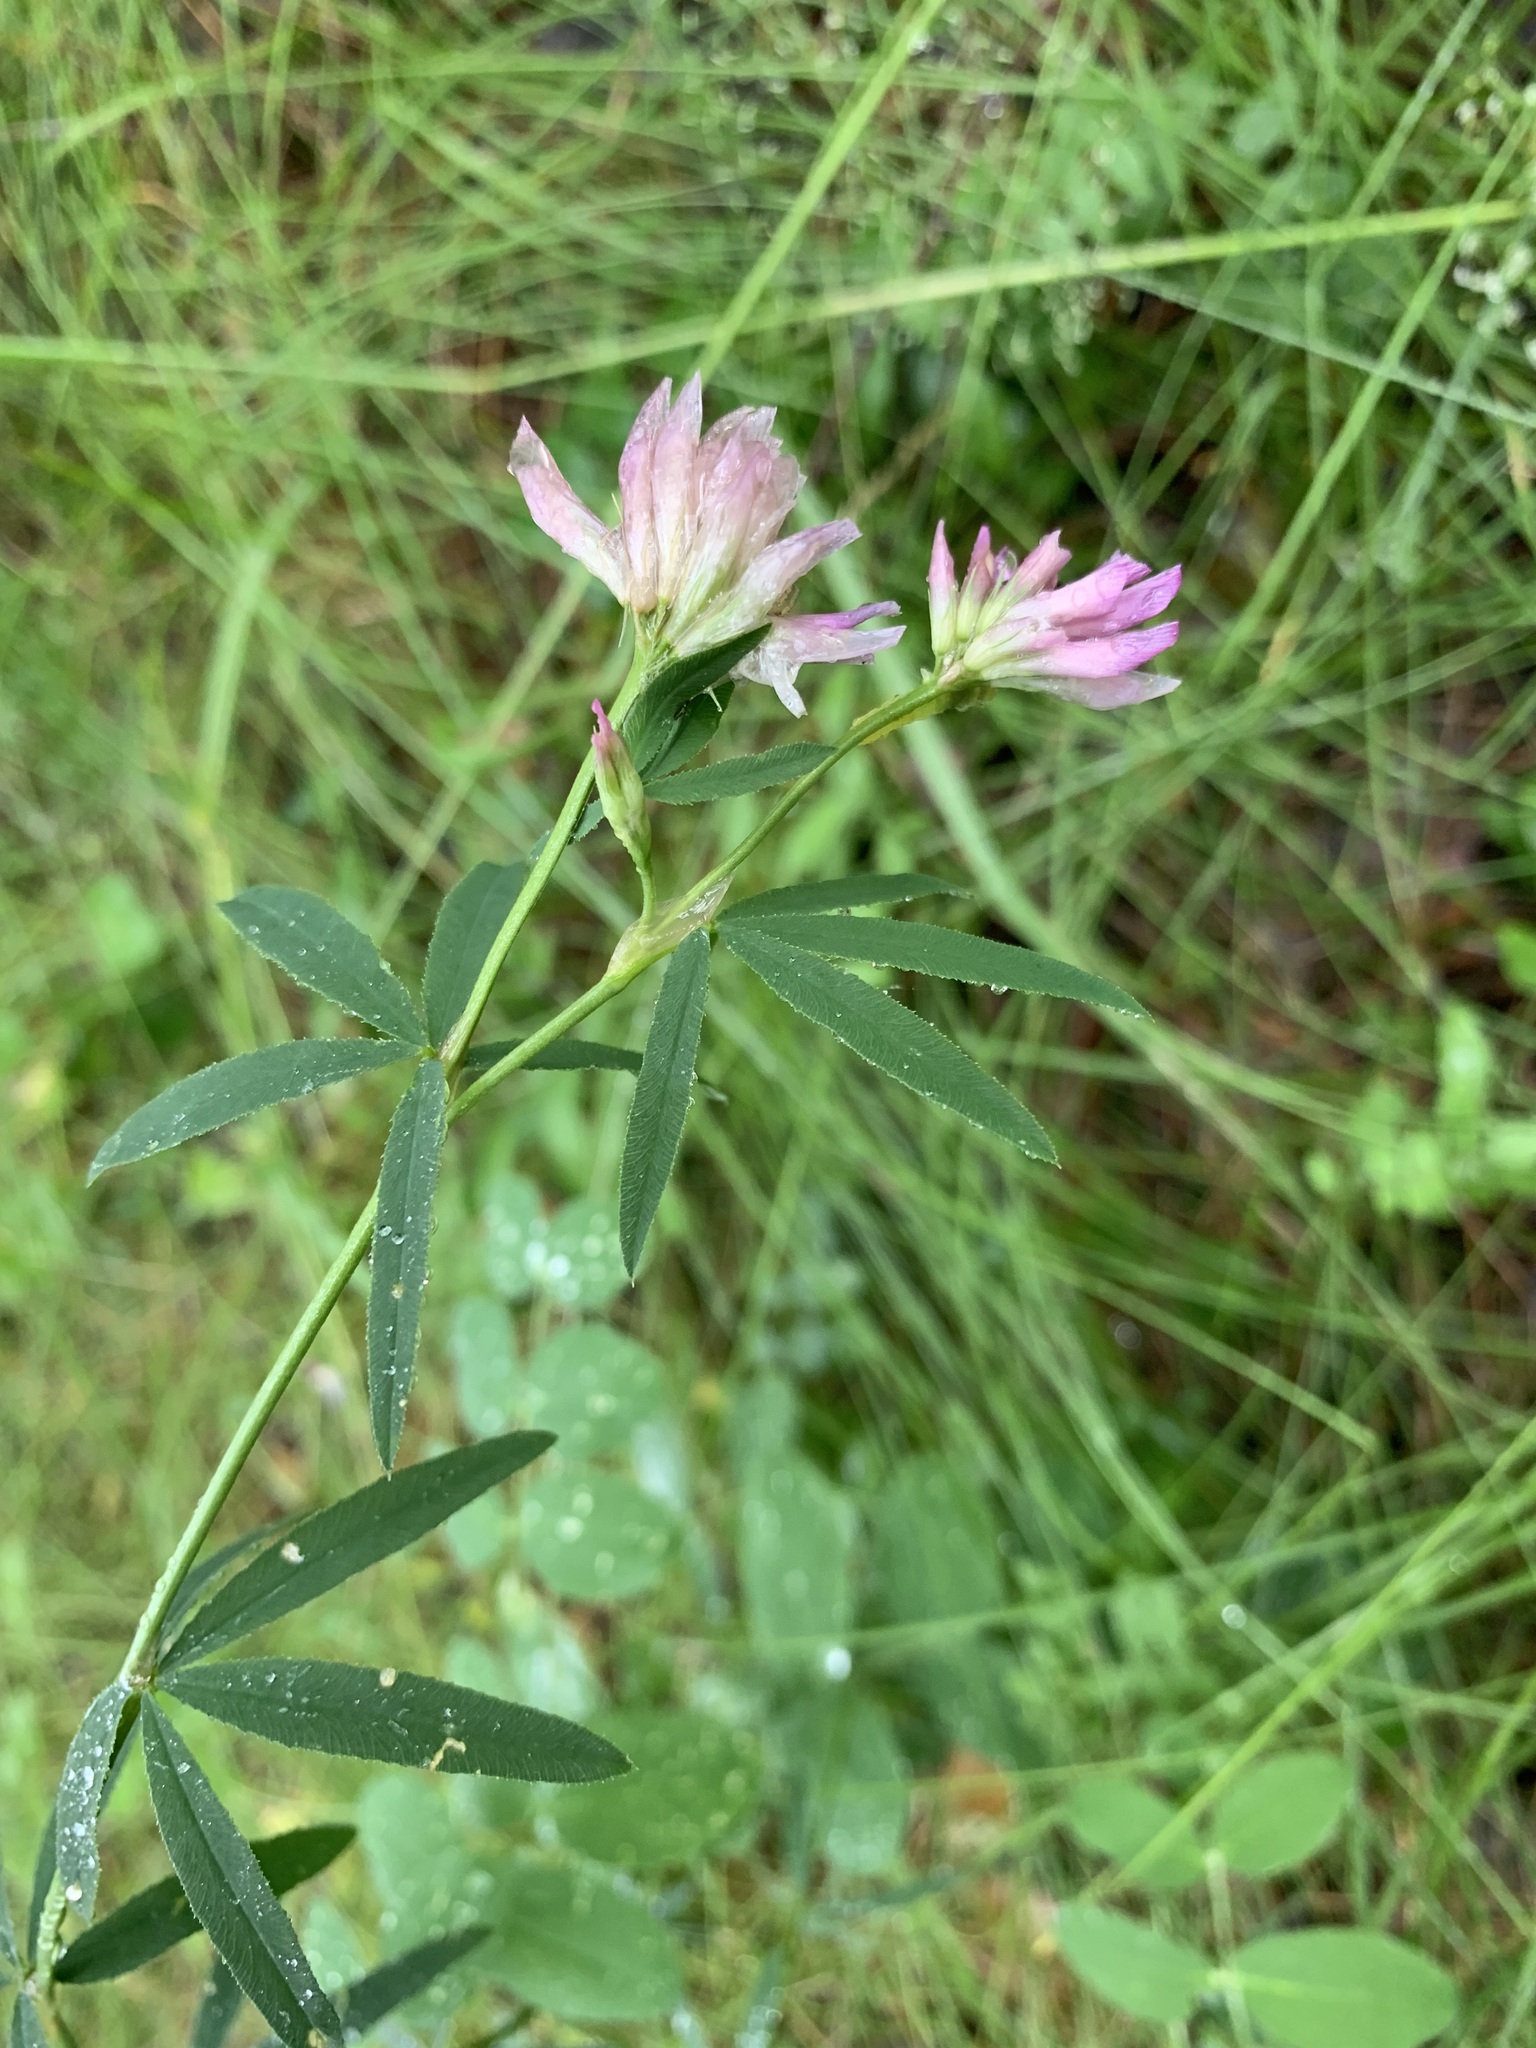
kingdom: Plantae
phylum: Tracheophyta
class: Magnoliopsida
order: Fabales
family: Fabaceae
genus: Trifolium
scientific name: Trifolium lupinaster
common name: Lupine clover
